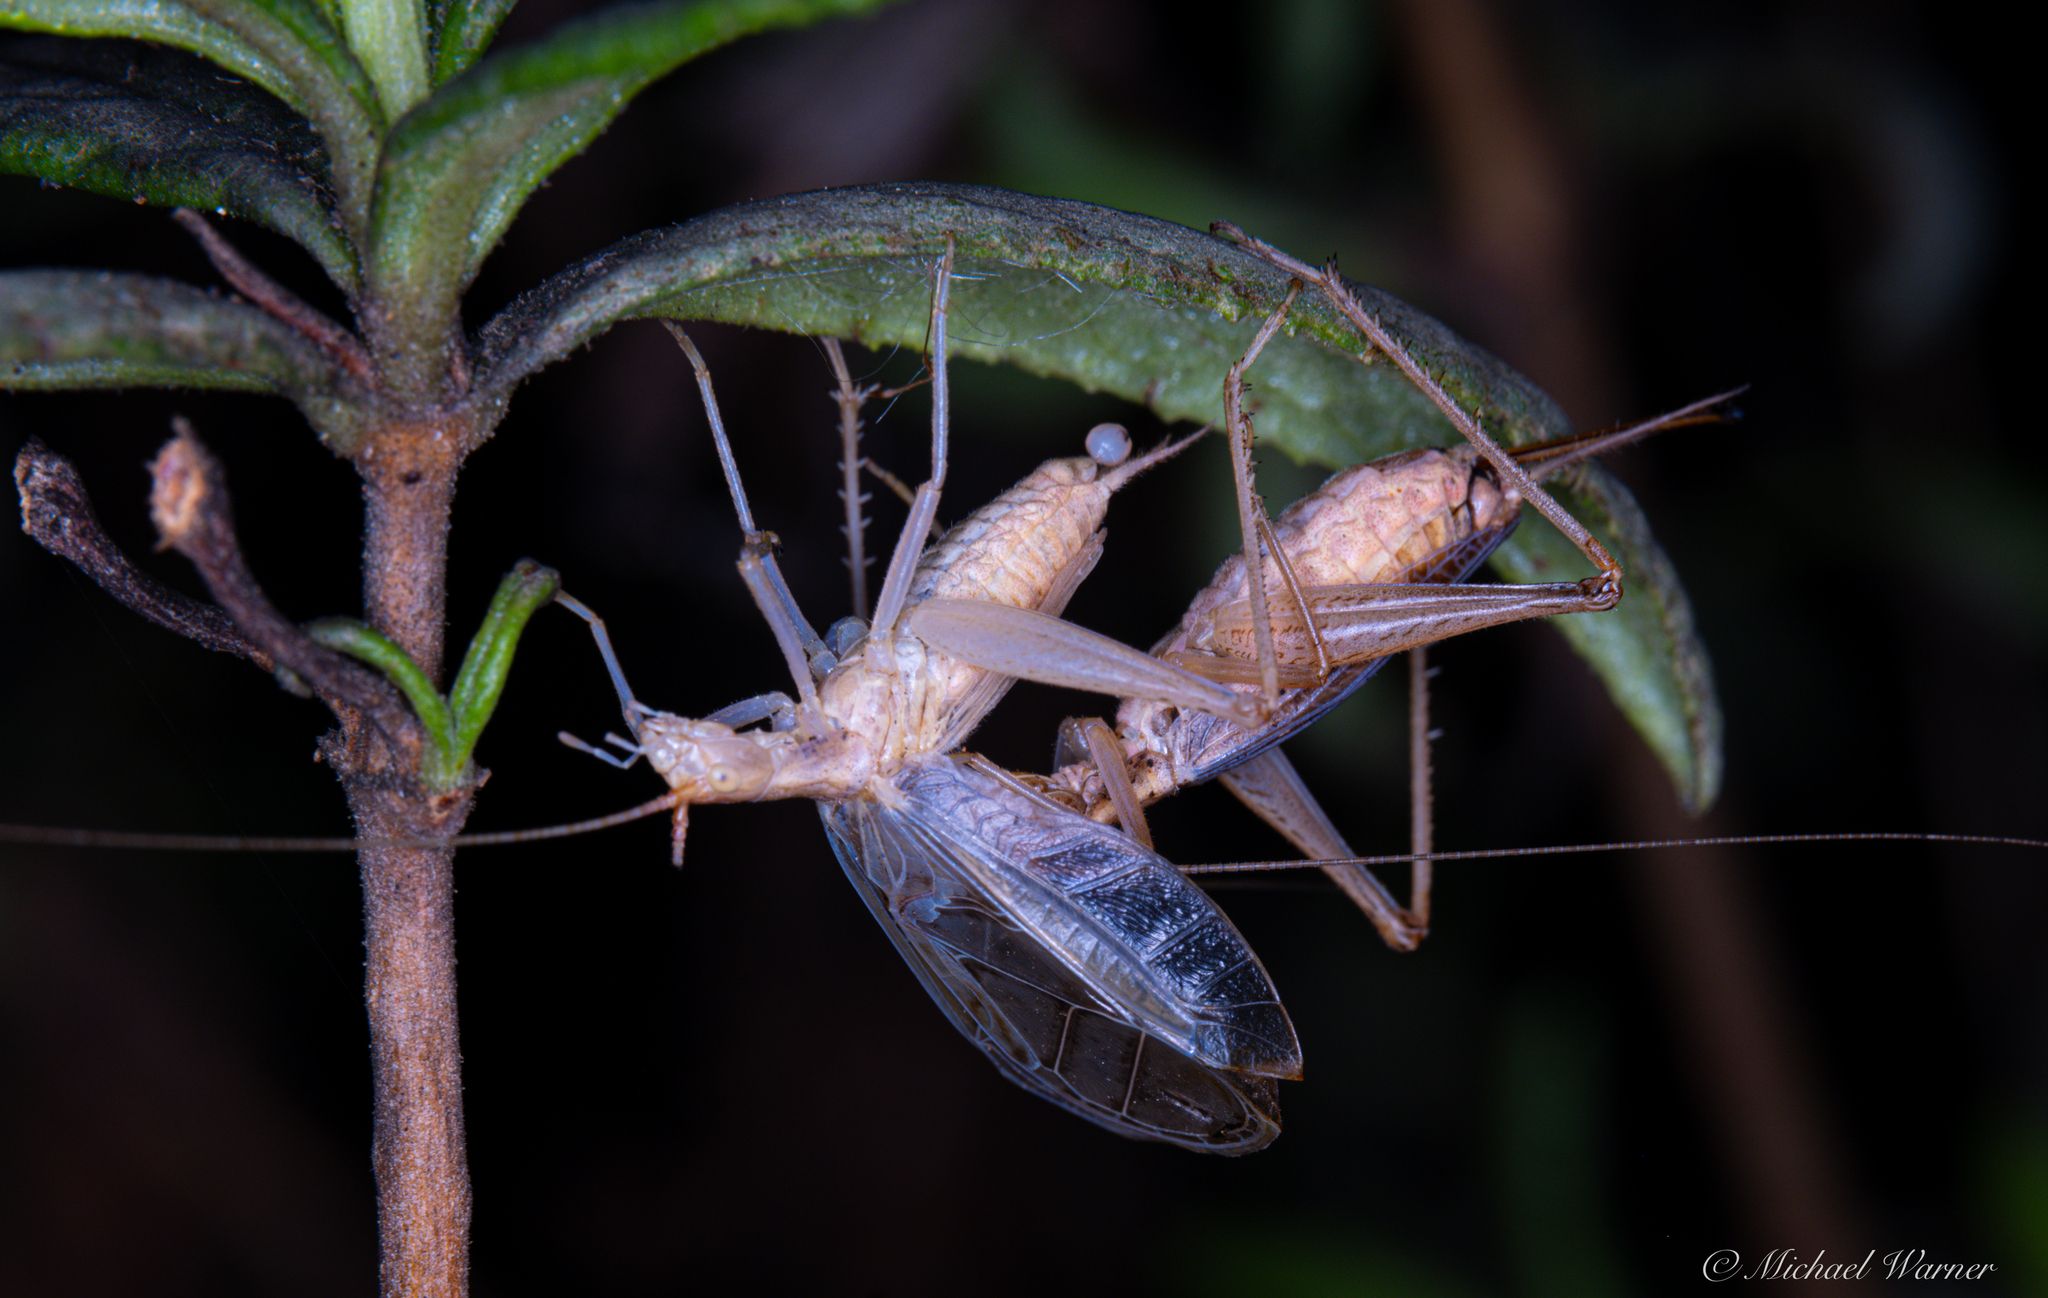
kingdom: Animalia
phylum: Arthropoda
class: Insecta
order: Orthoptera
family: Gryllidae
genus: Oecanthus
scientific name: Oecanthus californicus
